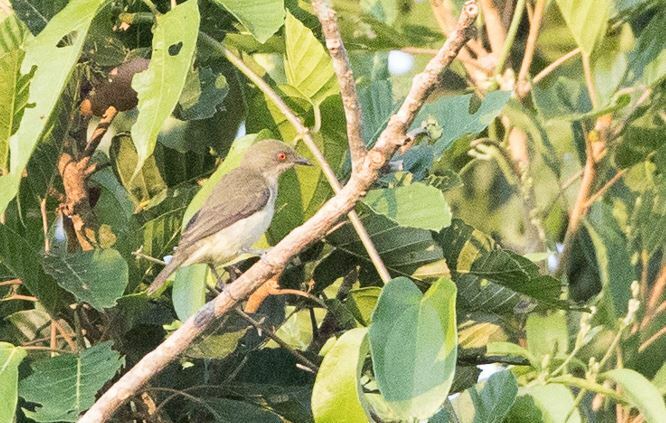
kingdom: Animalia
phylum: Chordata
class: Aves
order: Passeriformes
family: Thraupidae
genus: Dacnis
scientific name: Dacnis flaviventer
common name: Yellow-bellied dacnis
